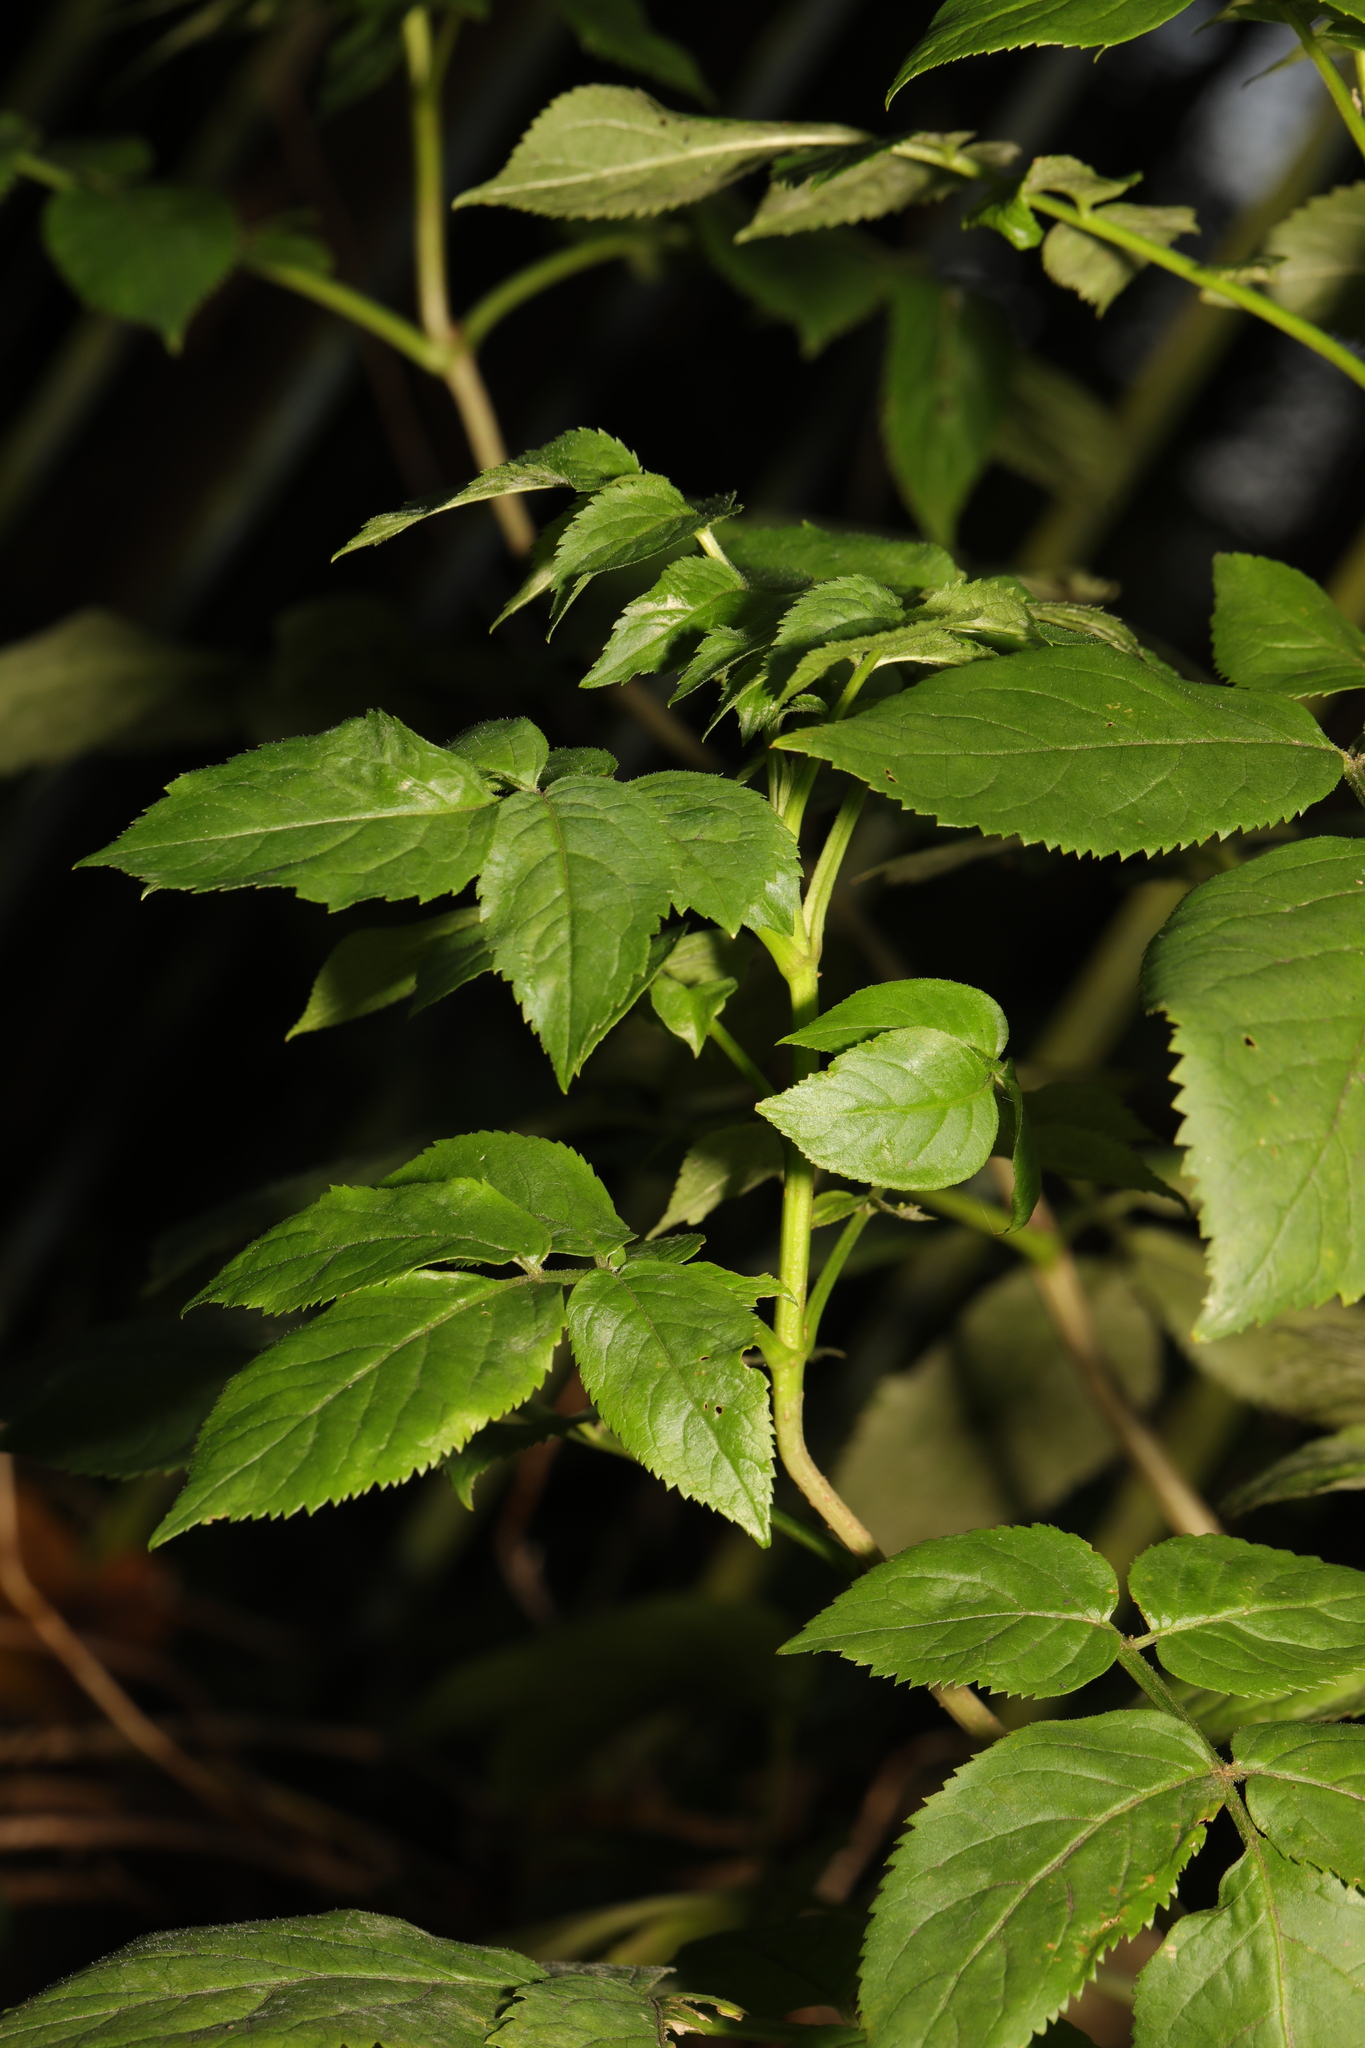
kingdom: Plantae
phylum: Tracheophyta
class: Magnoliopsida
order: Dipsacales
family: Viburnaceae
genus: Sambucus
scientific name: Sambucus nigra
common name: Elder
